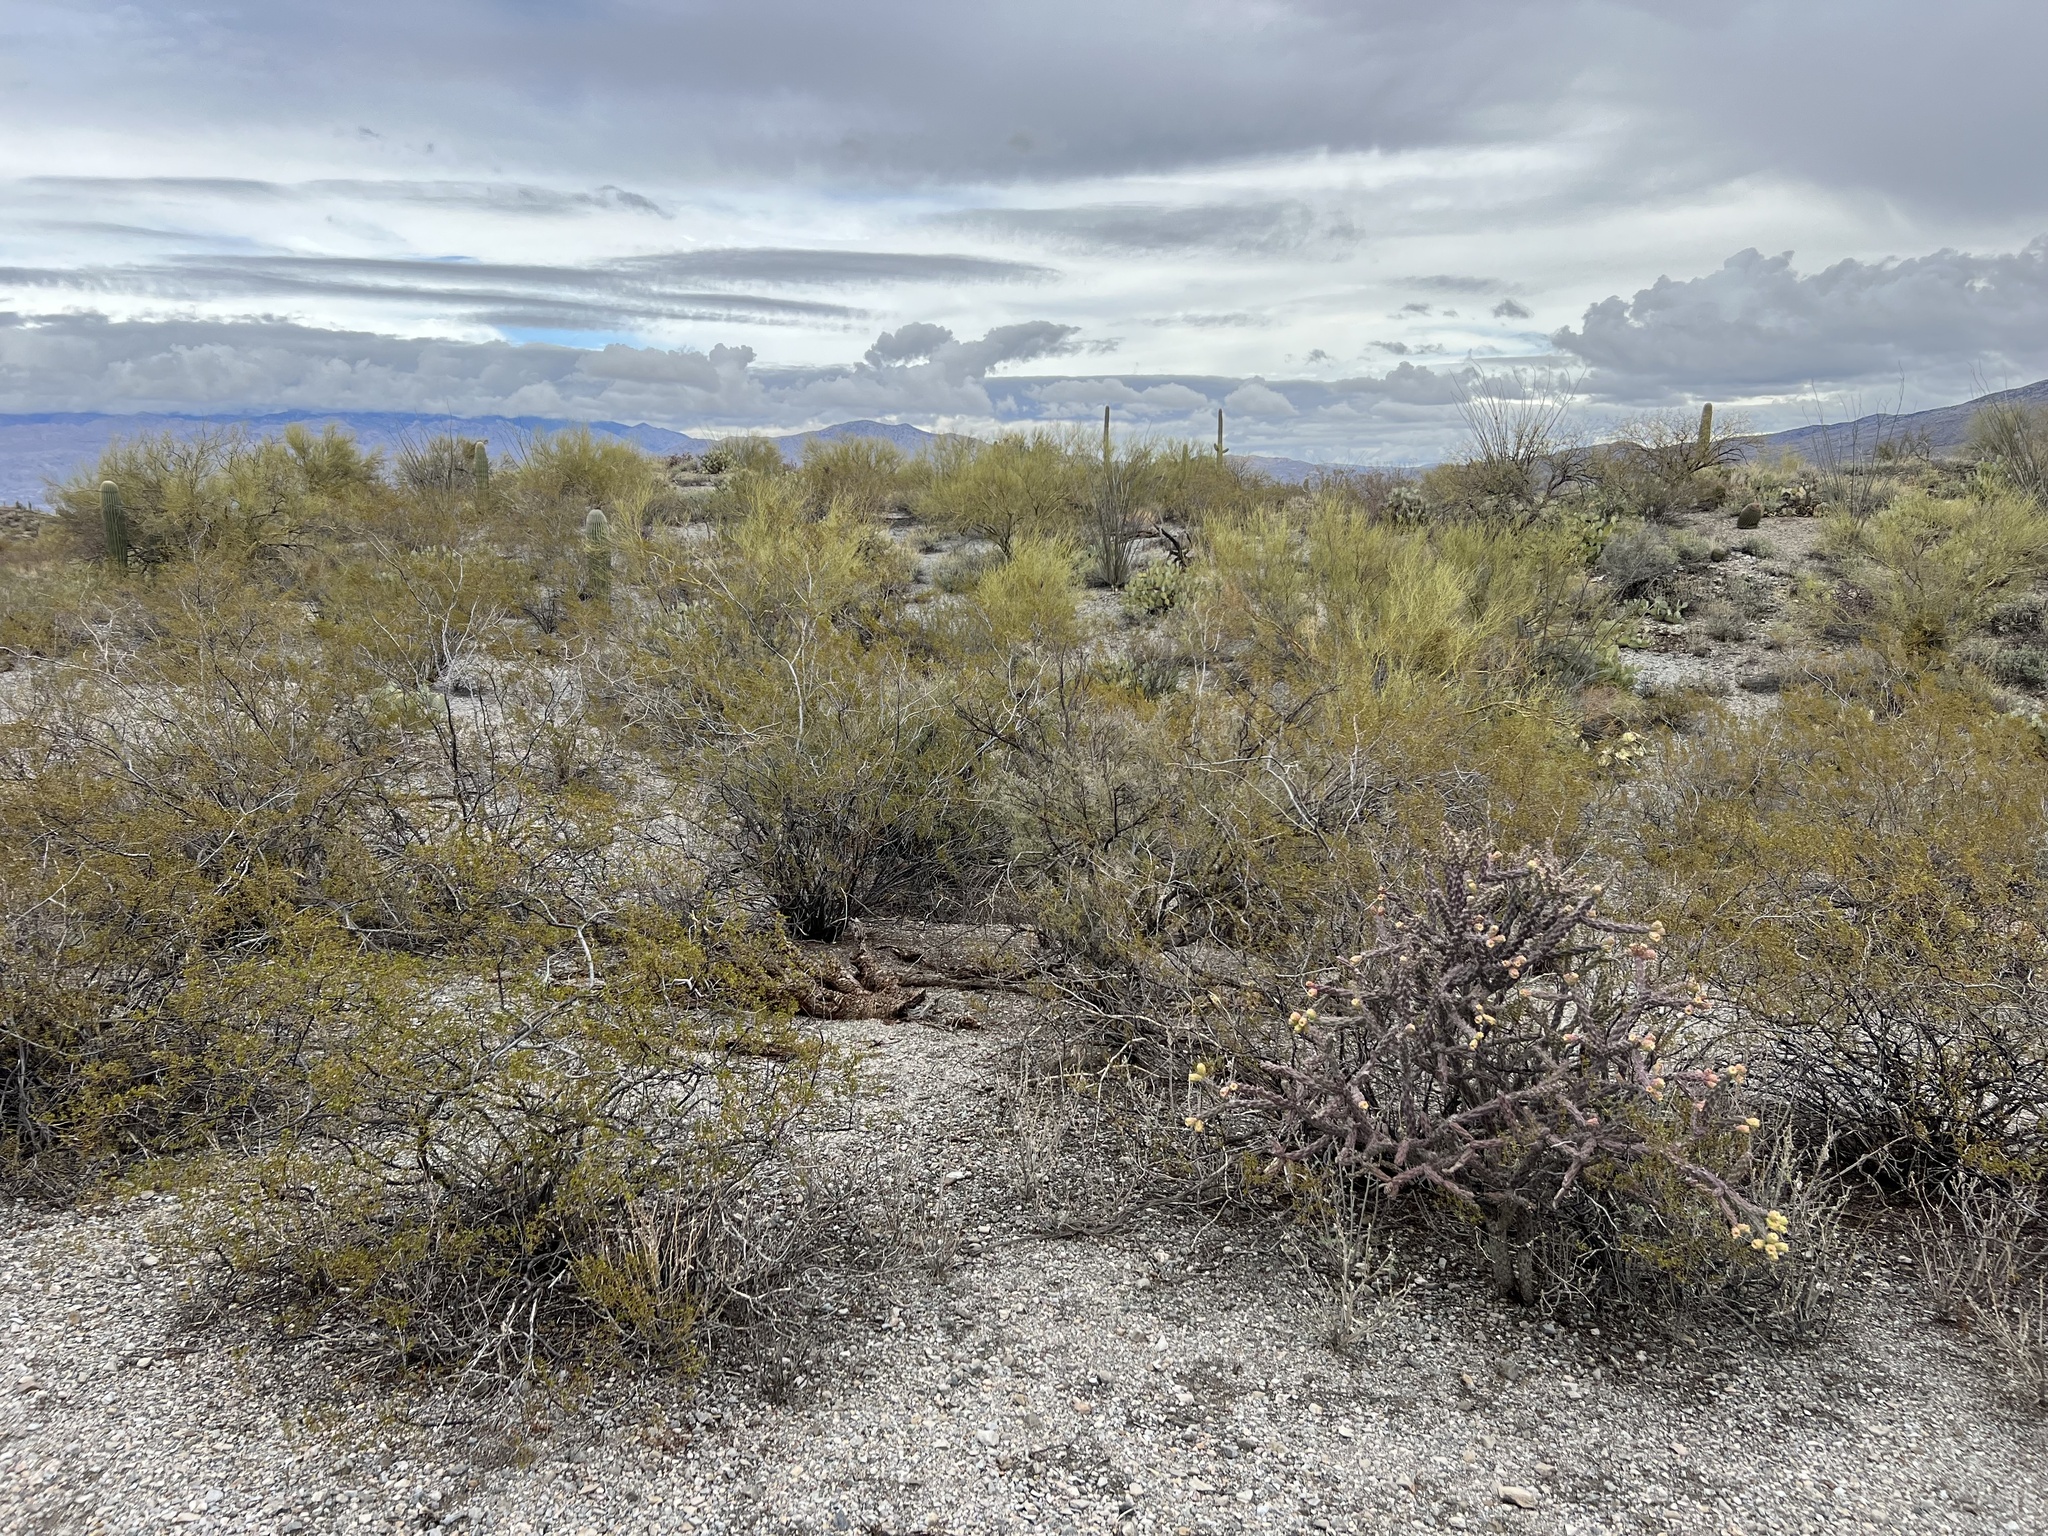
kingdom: Plantae
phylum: Tracheophyta
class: Magnoliopsida
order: Zygophyllales
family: Zygophyllaceae
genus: Larrea
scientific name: Larrea tridentata
